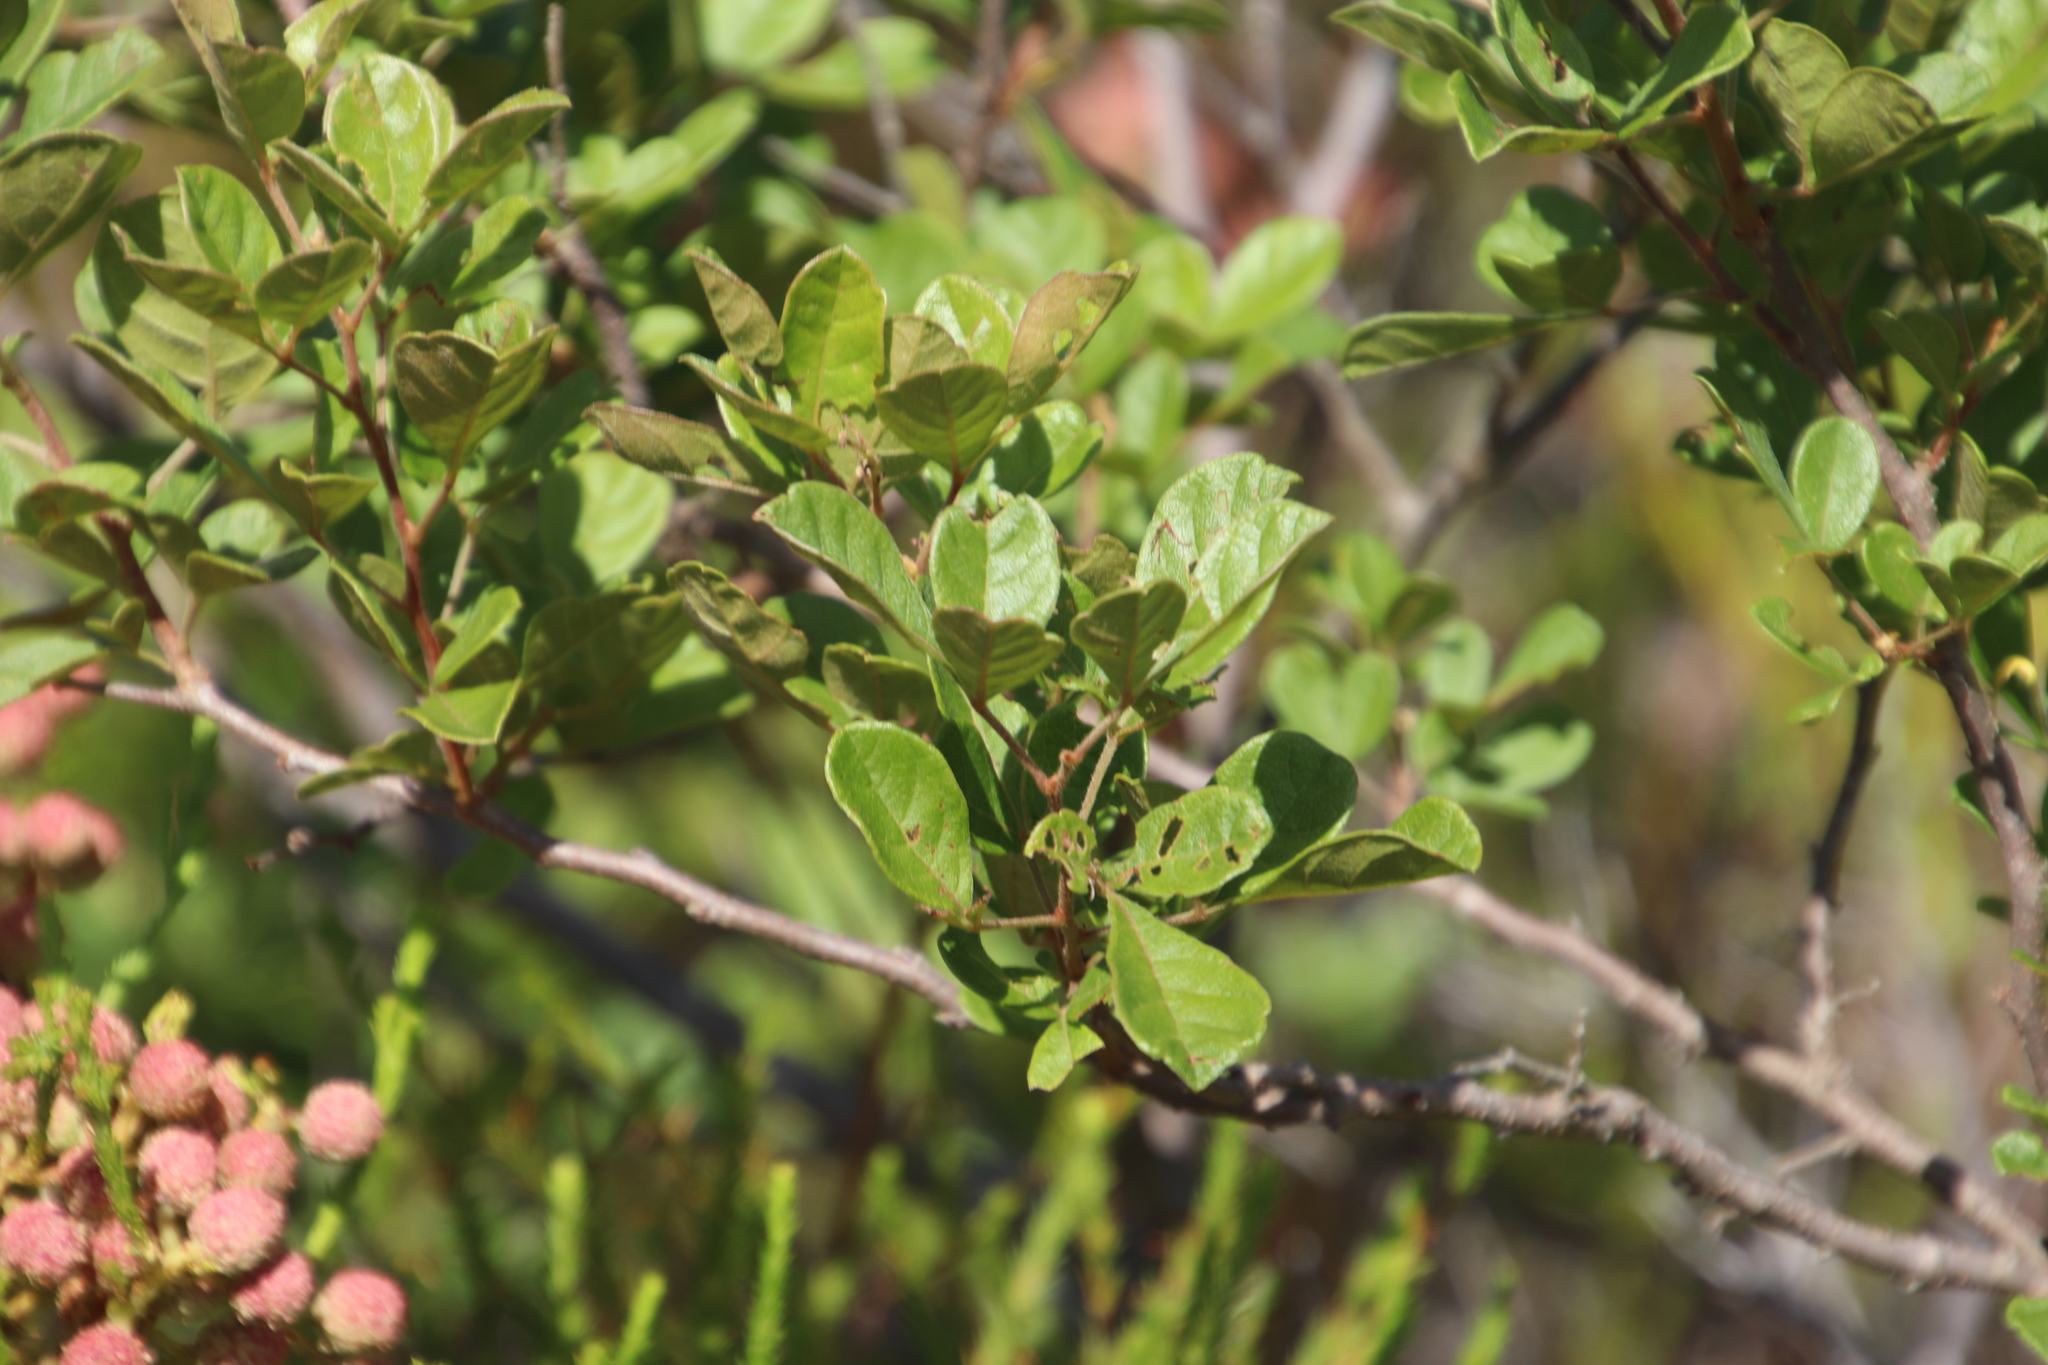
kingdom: Plantae
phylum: Tracheophyta
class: Magnoliopsida
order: Sapindales
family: Anacardiaceae
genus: Searsia
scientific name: Searsia laevigata
